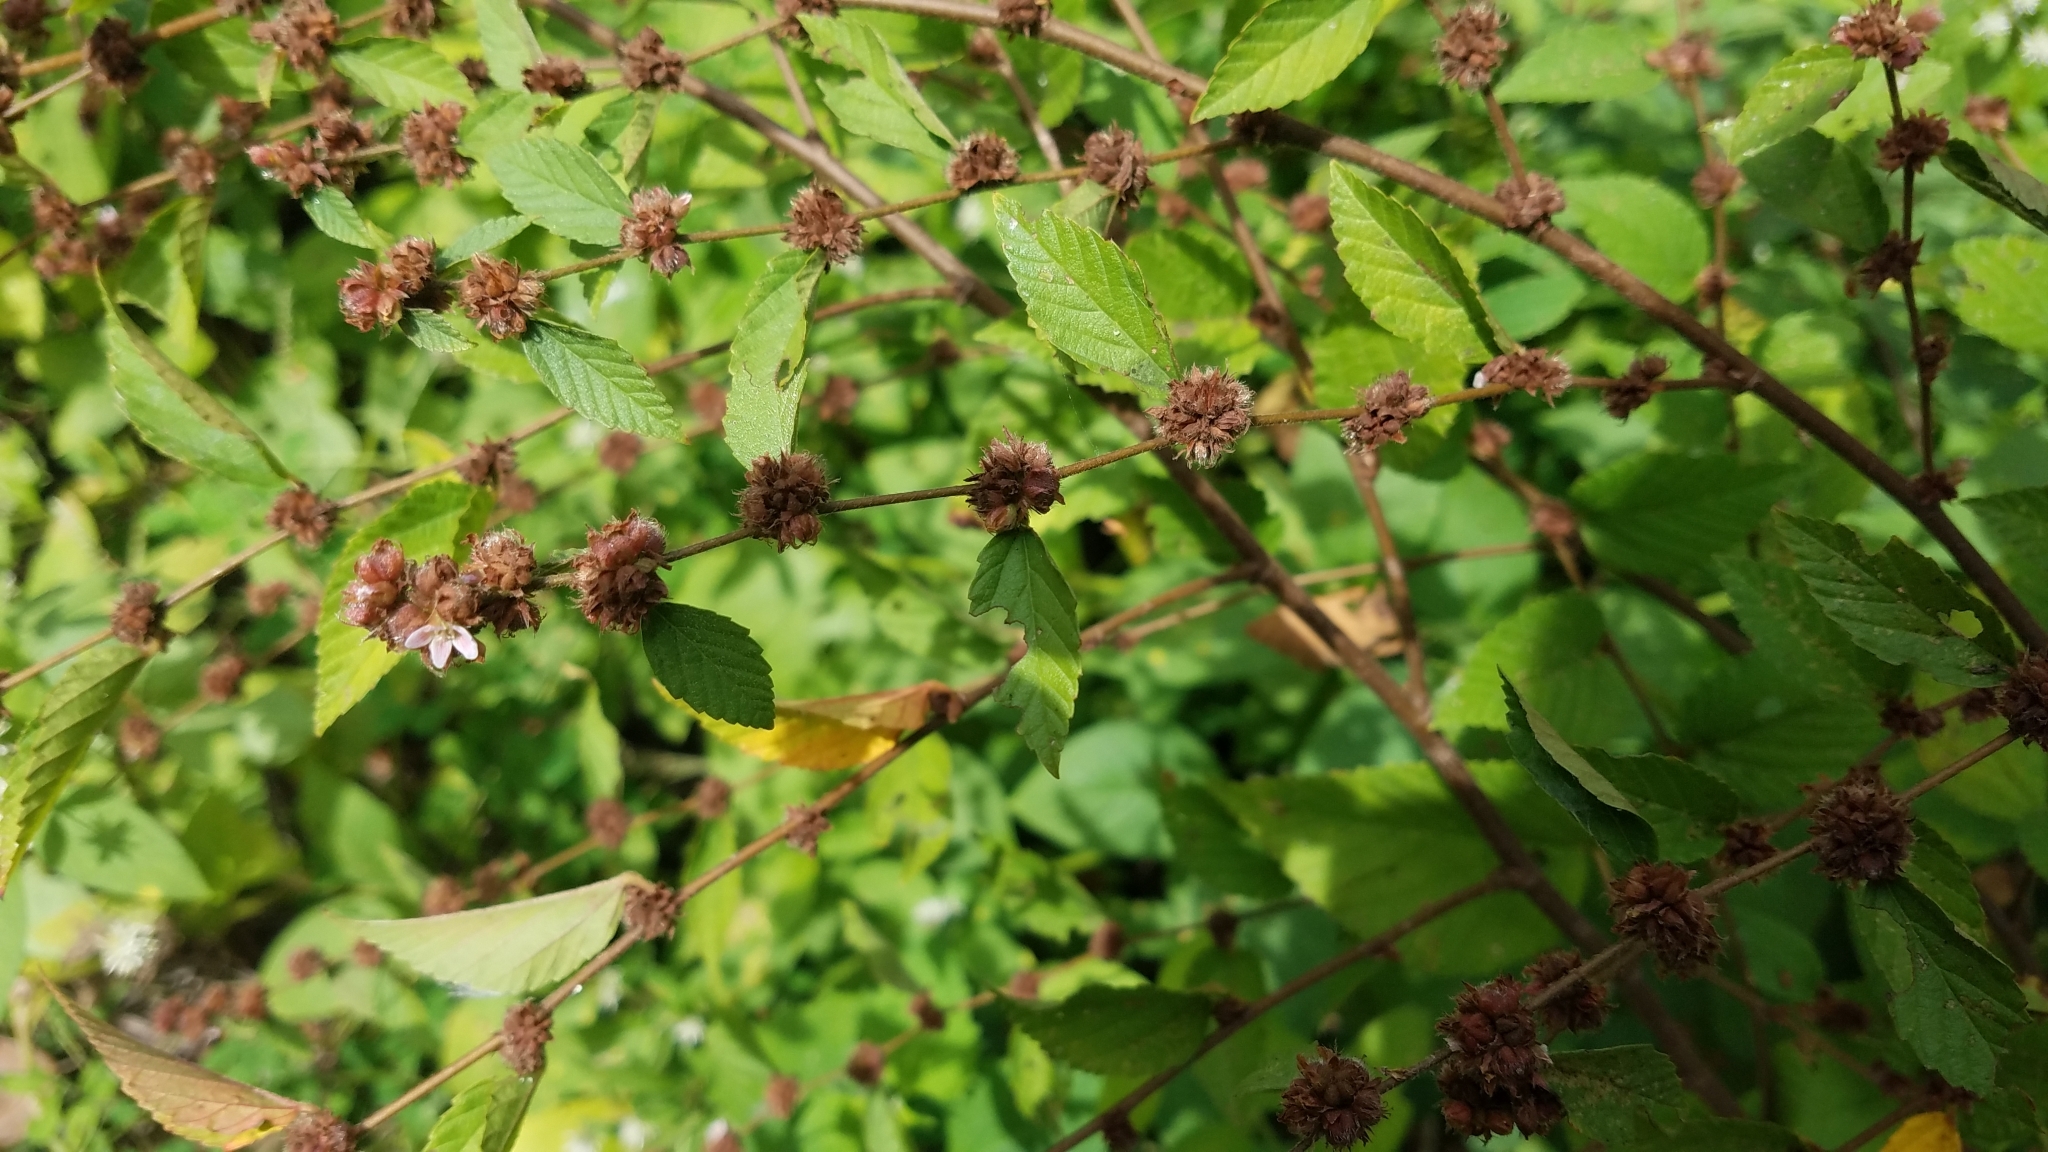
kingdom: Plantae
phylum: Tracheophyta
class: Magnoliopsida
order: Malvales
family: Malvaceae
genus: Melochia
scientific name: Melochia nodiflora
